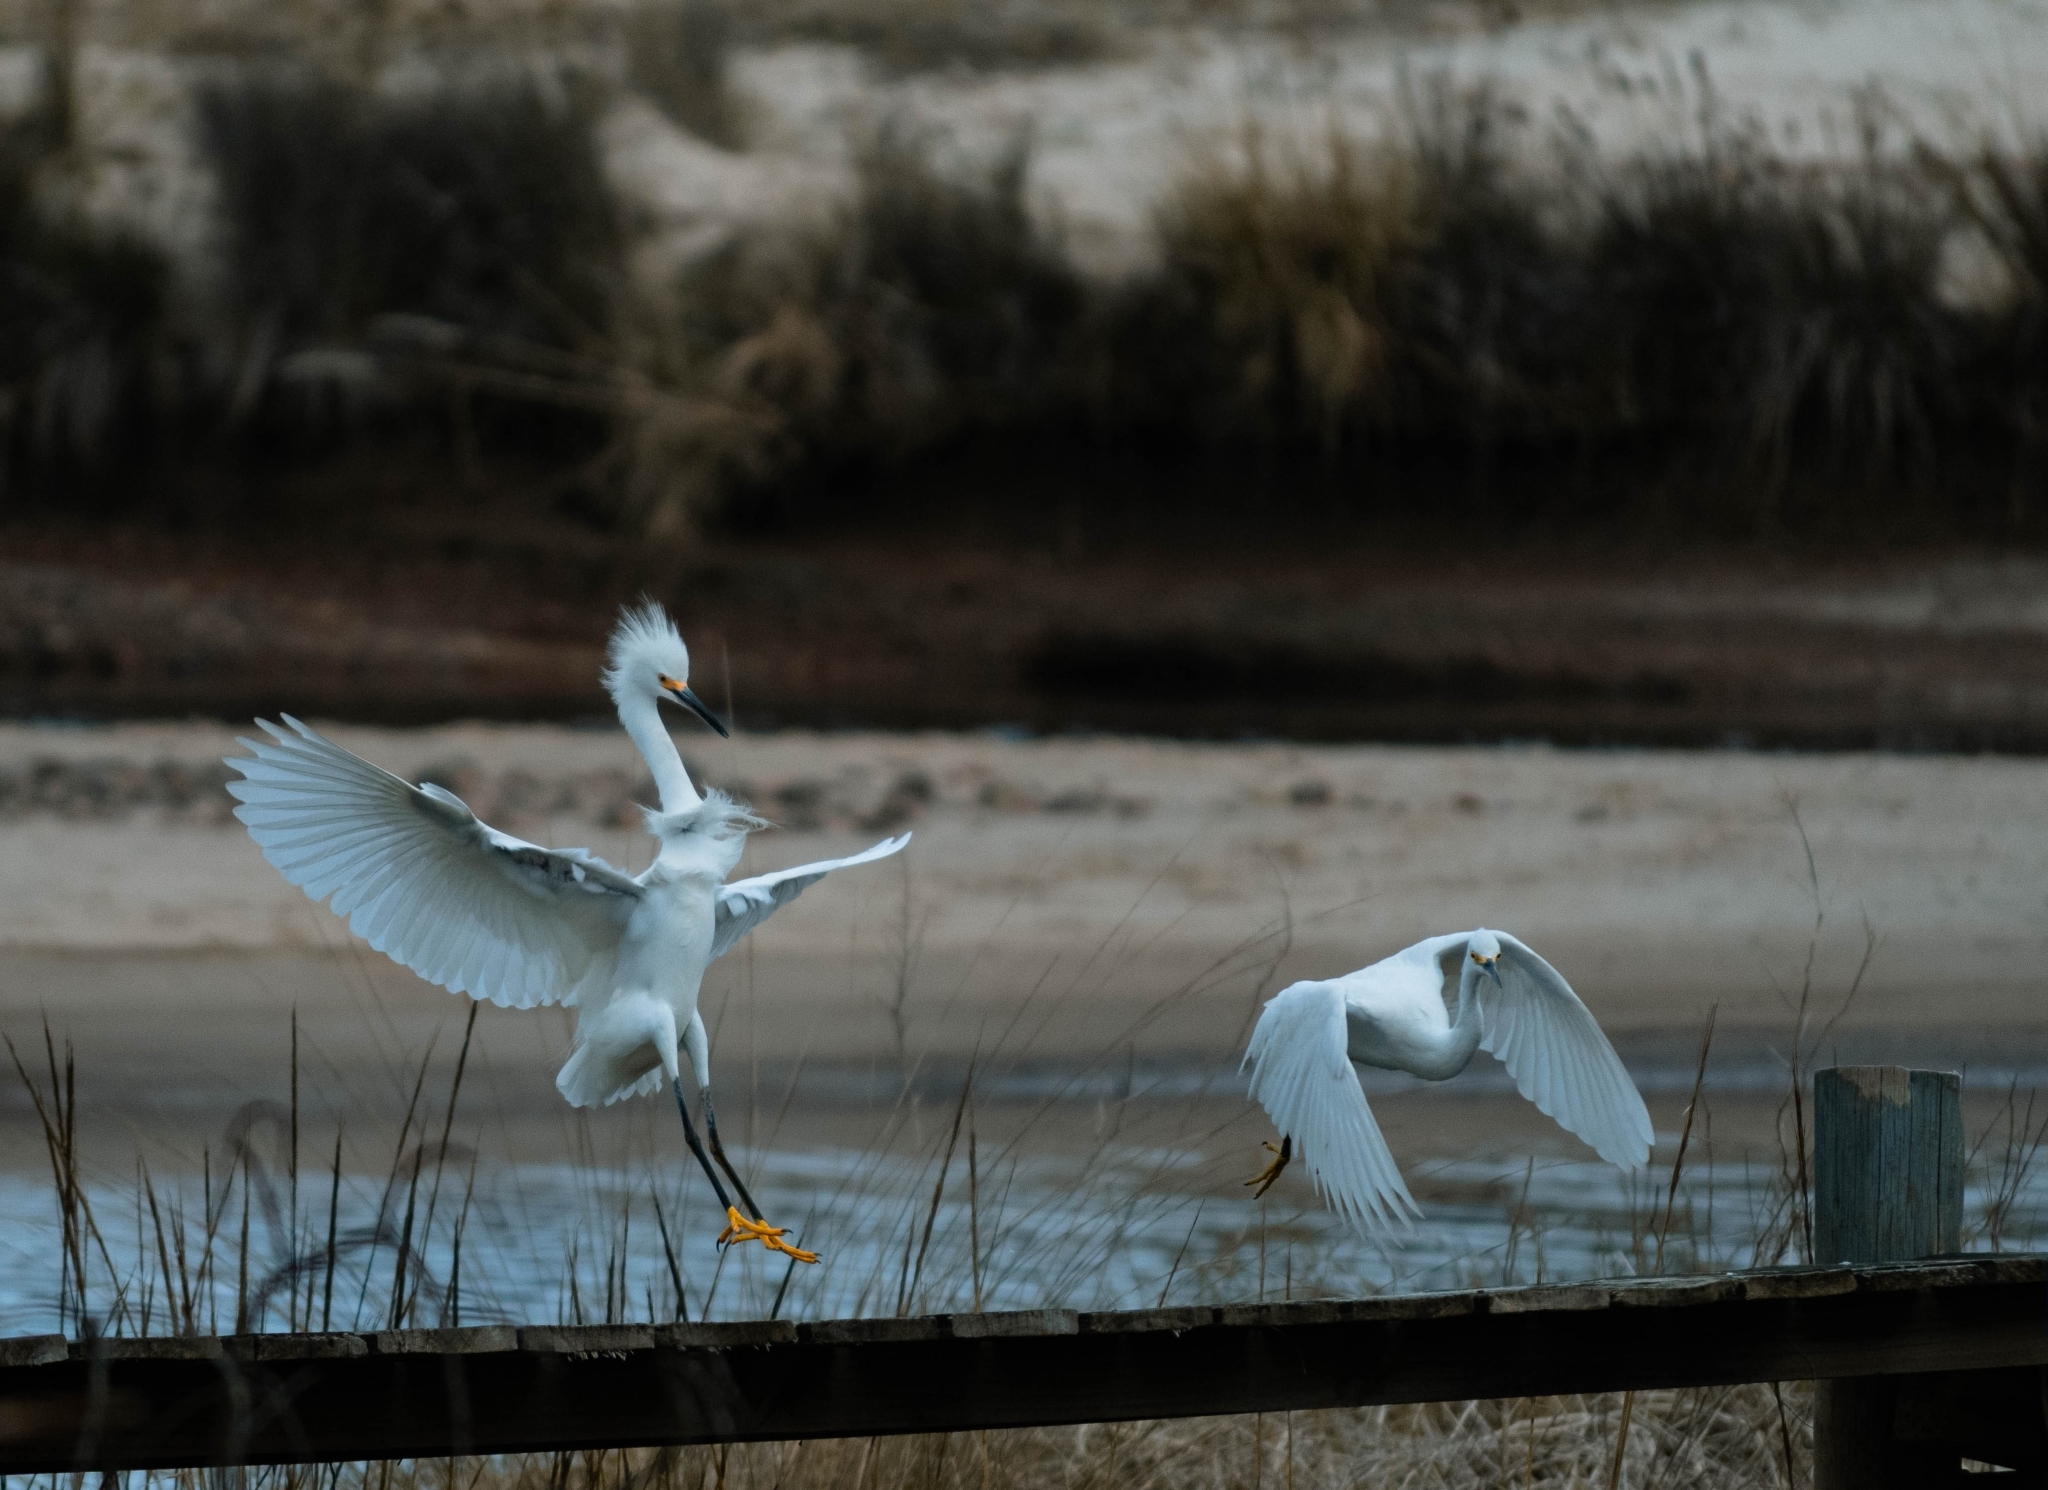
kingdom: Animalia
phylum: Chordata
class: Aves
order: Pelecaniformes
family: Ardeidae
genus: Egretta
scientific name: Egretta thula
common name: Snowy egret
